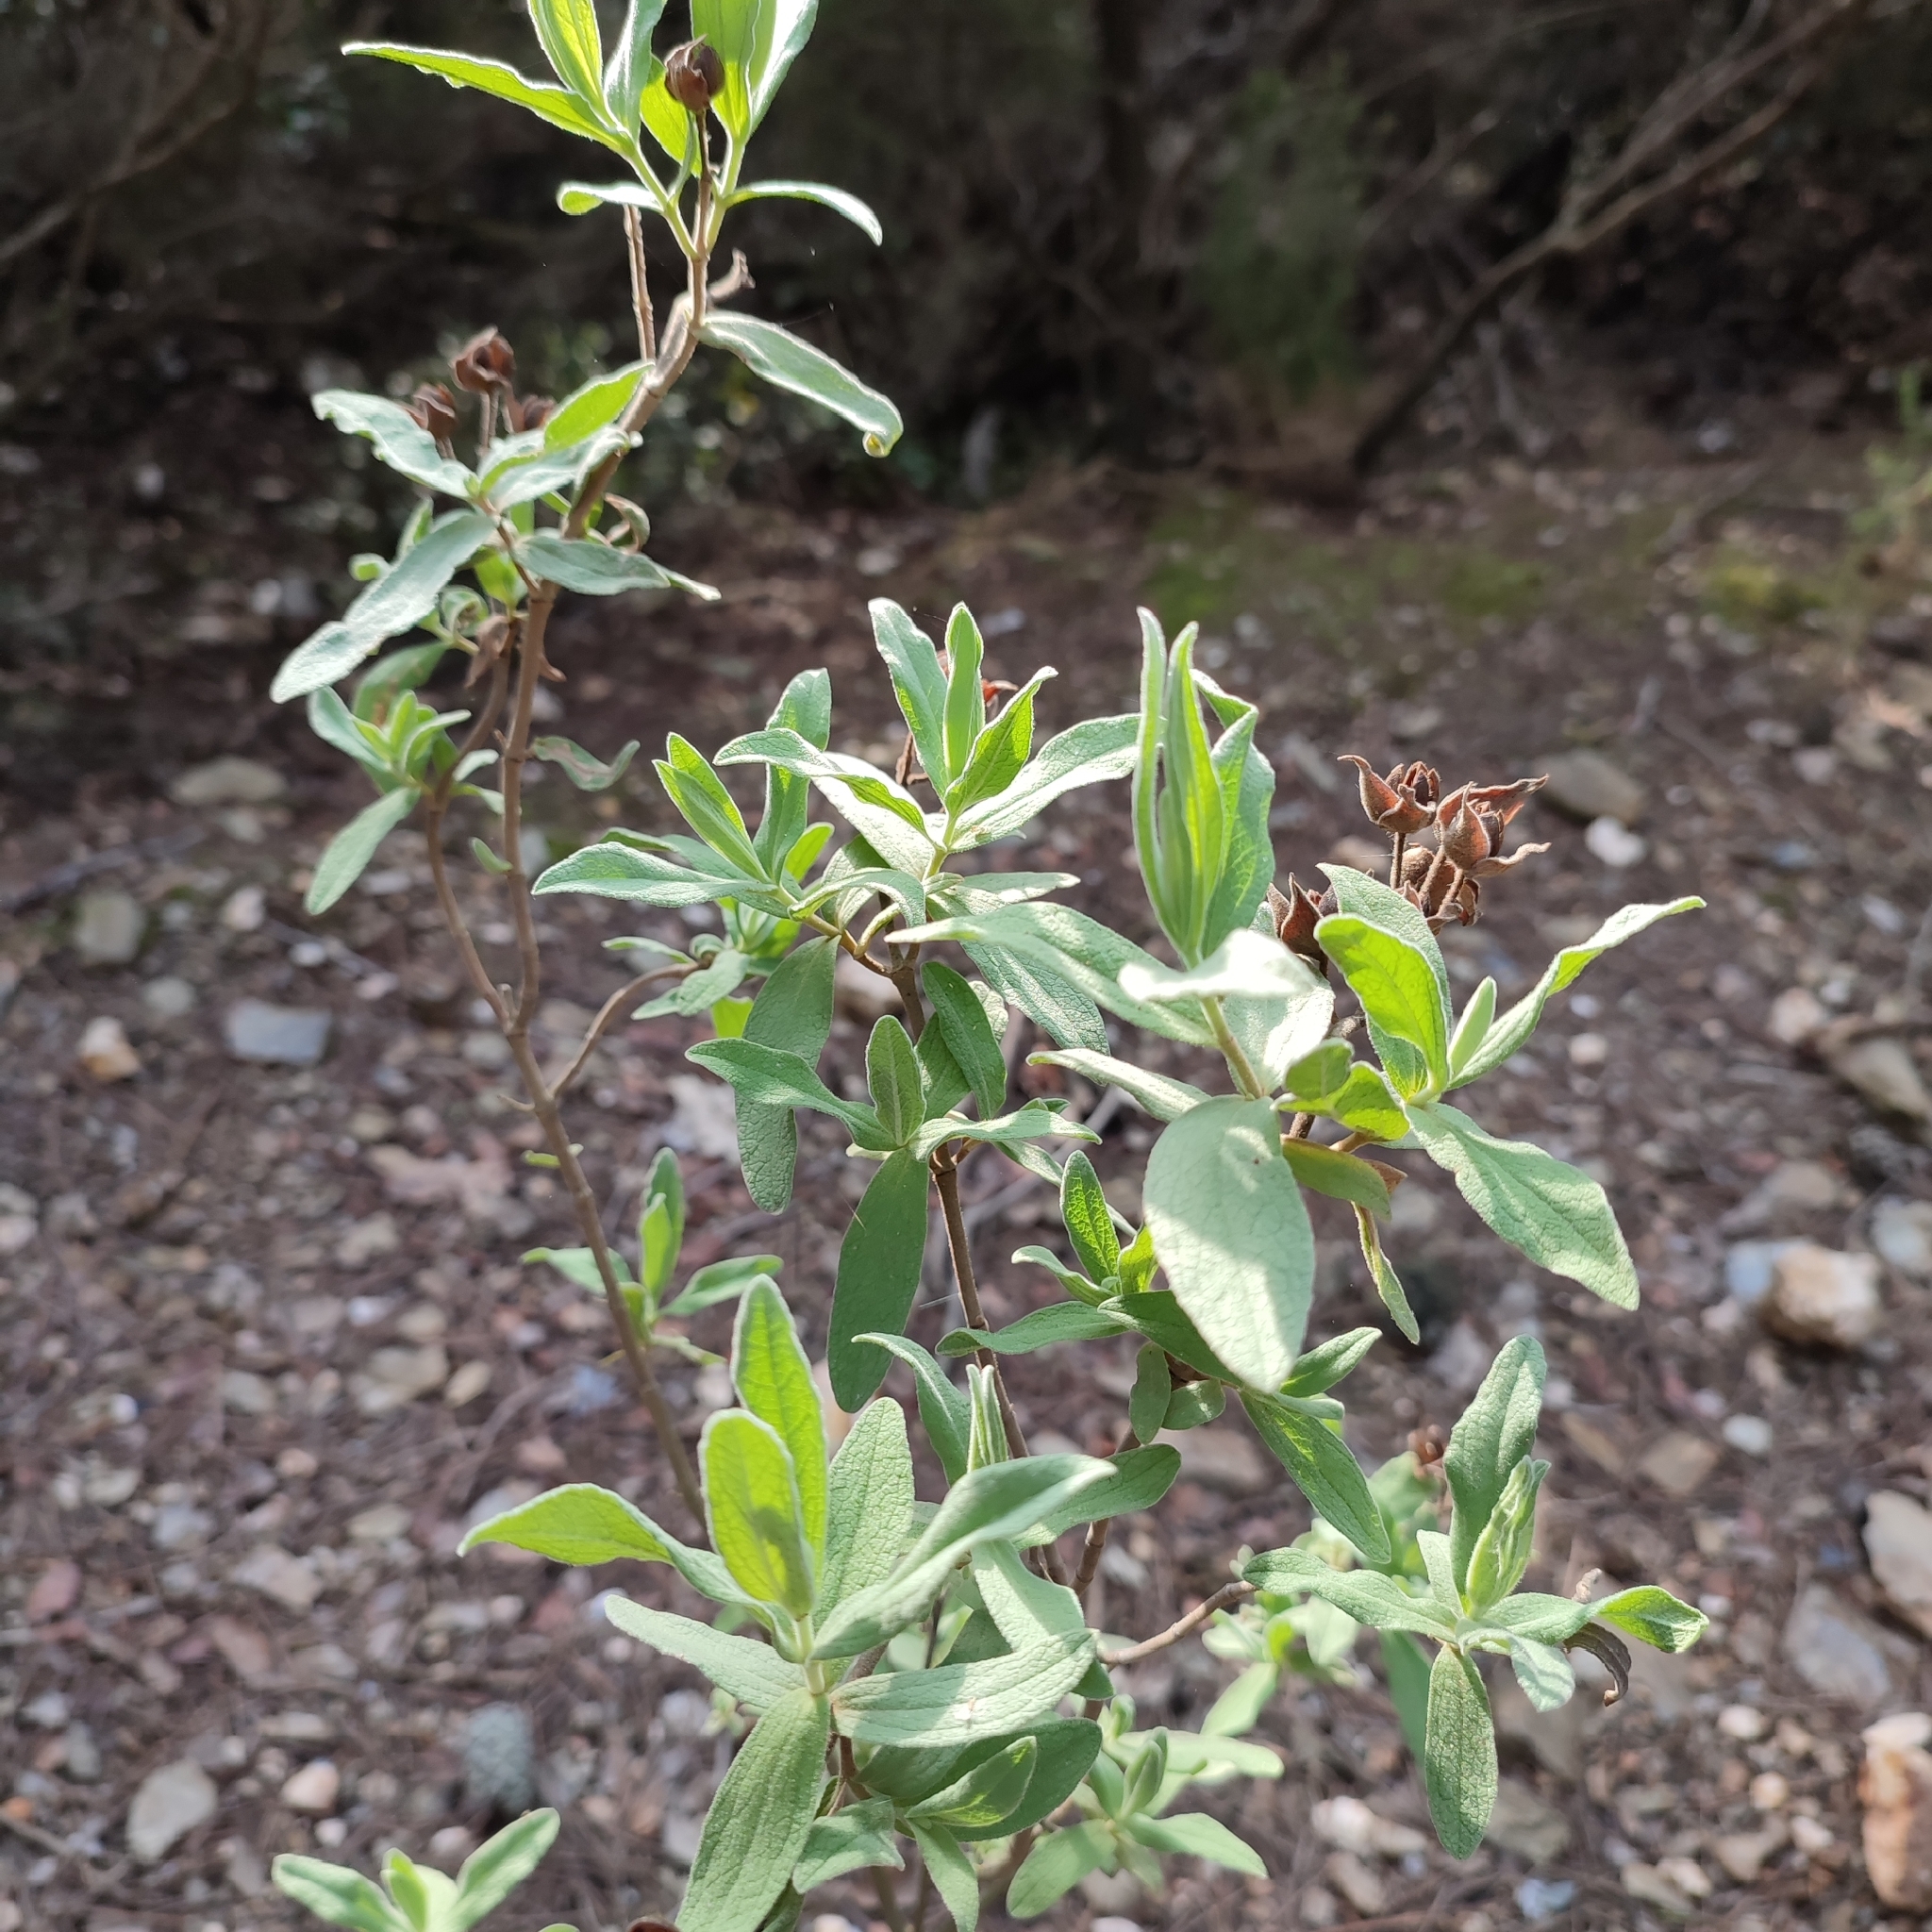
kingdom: Plantae
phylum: Tracheophyta
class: Magnoliopsida
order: Malvales
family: Cistaceae
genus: Cistus
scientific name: Cistus albidus
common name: White-leaf rock-rose
